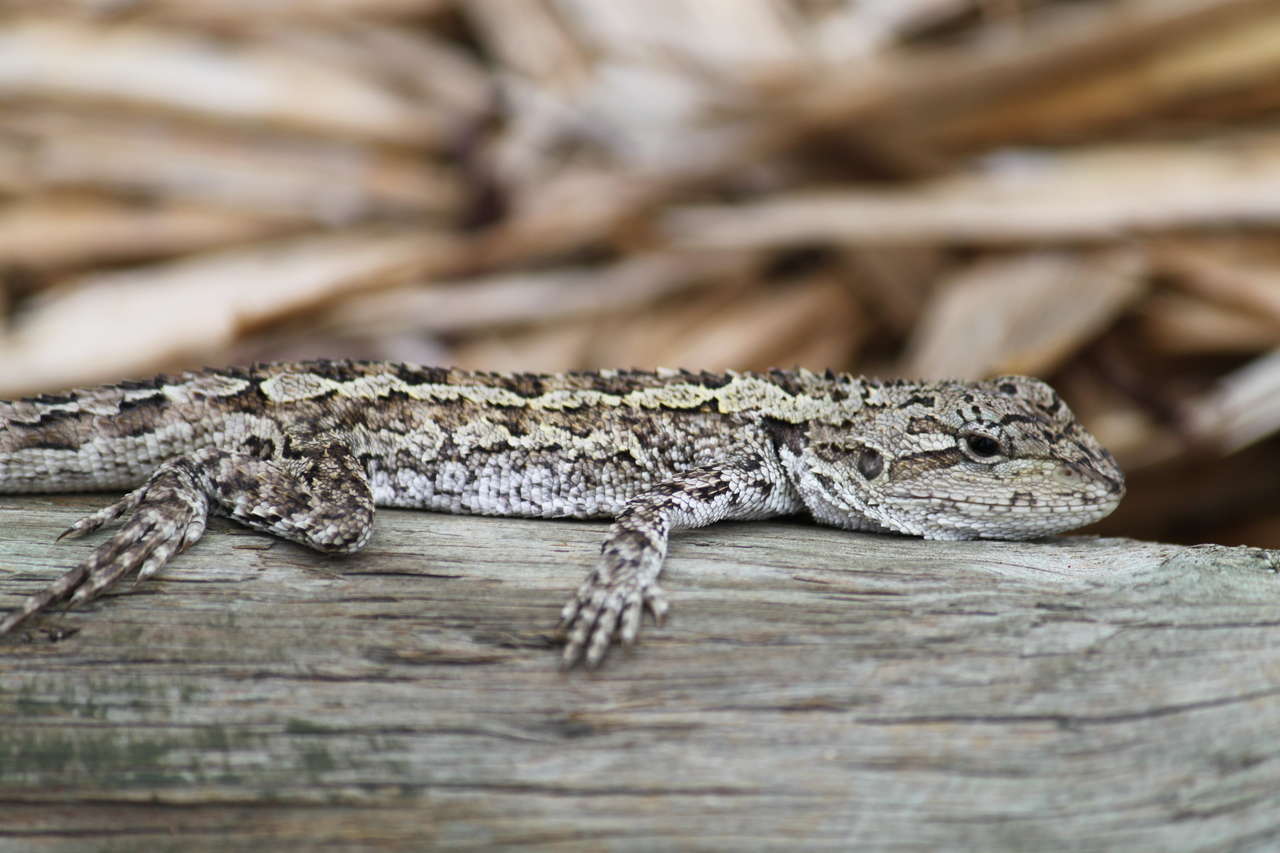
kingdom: Animalia
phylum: Chordata
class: Squamata
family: Agamidae
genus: Amphibolurus
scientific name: Amphibolurus muricatus
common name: Jacky lizard
